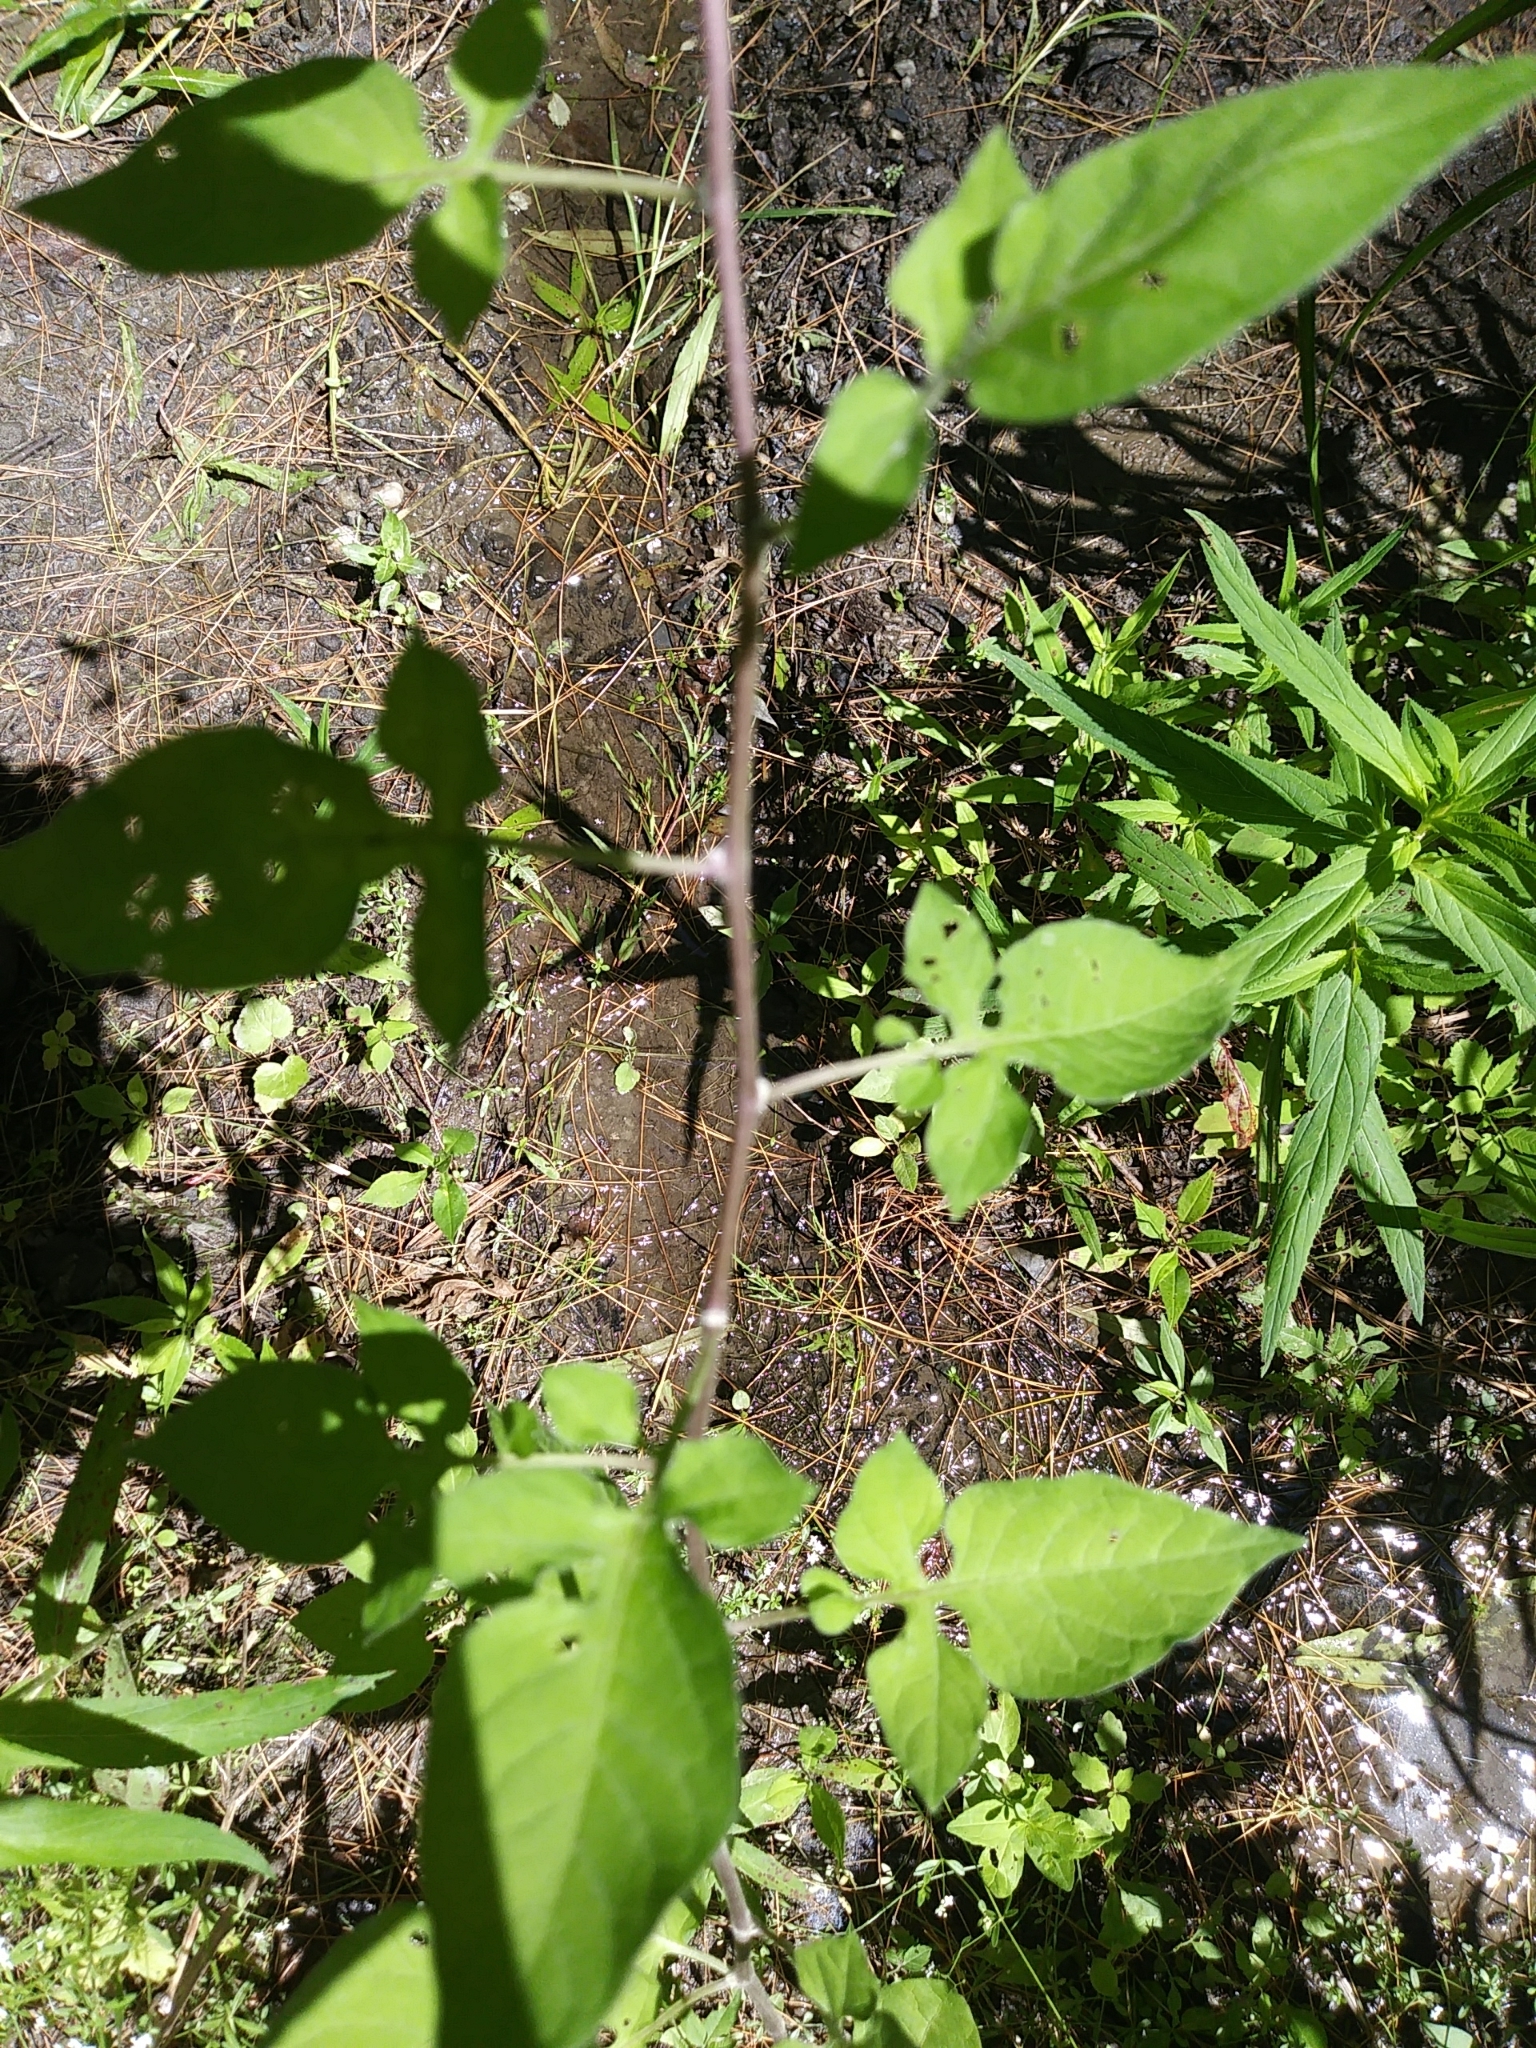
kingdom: Plantae
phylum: Tracheophyta
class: Magnoliopsida
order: Solanales
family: Solanaceae
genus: Solanum
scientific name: Solanum dulcamara
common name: Climbing nightshade
